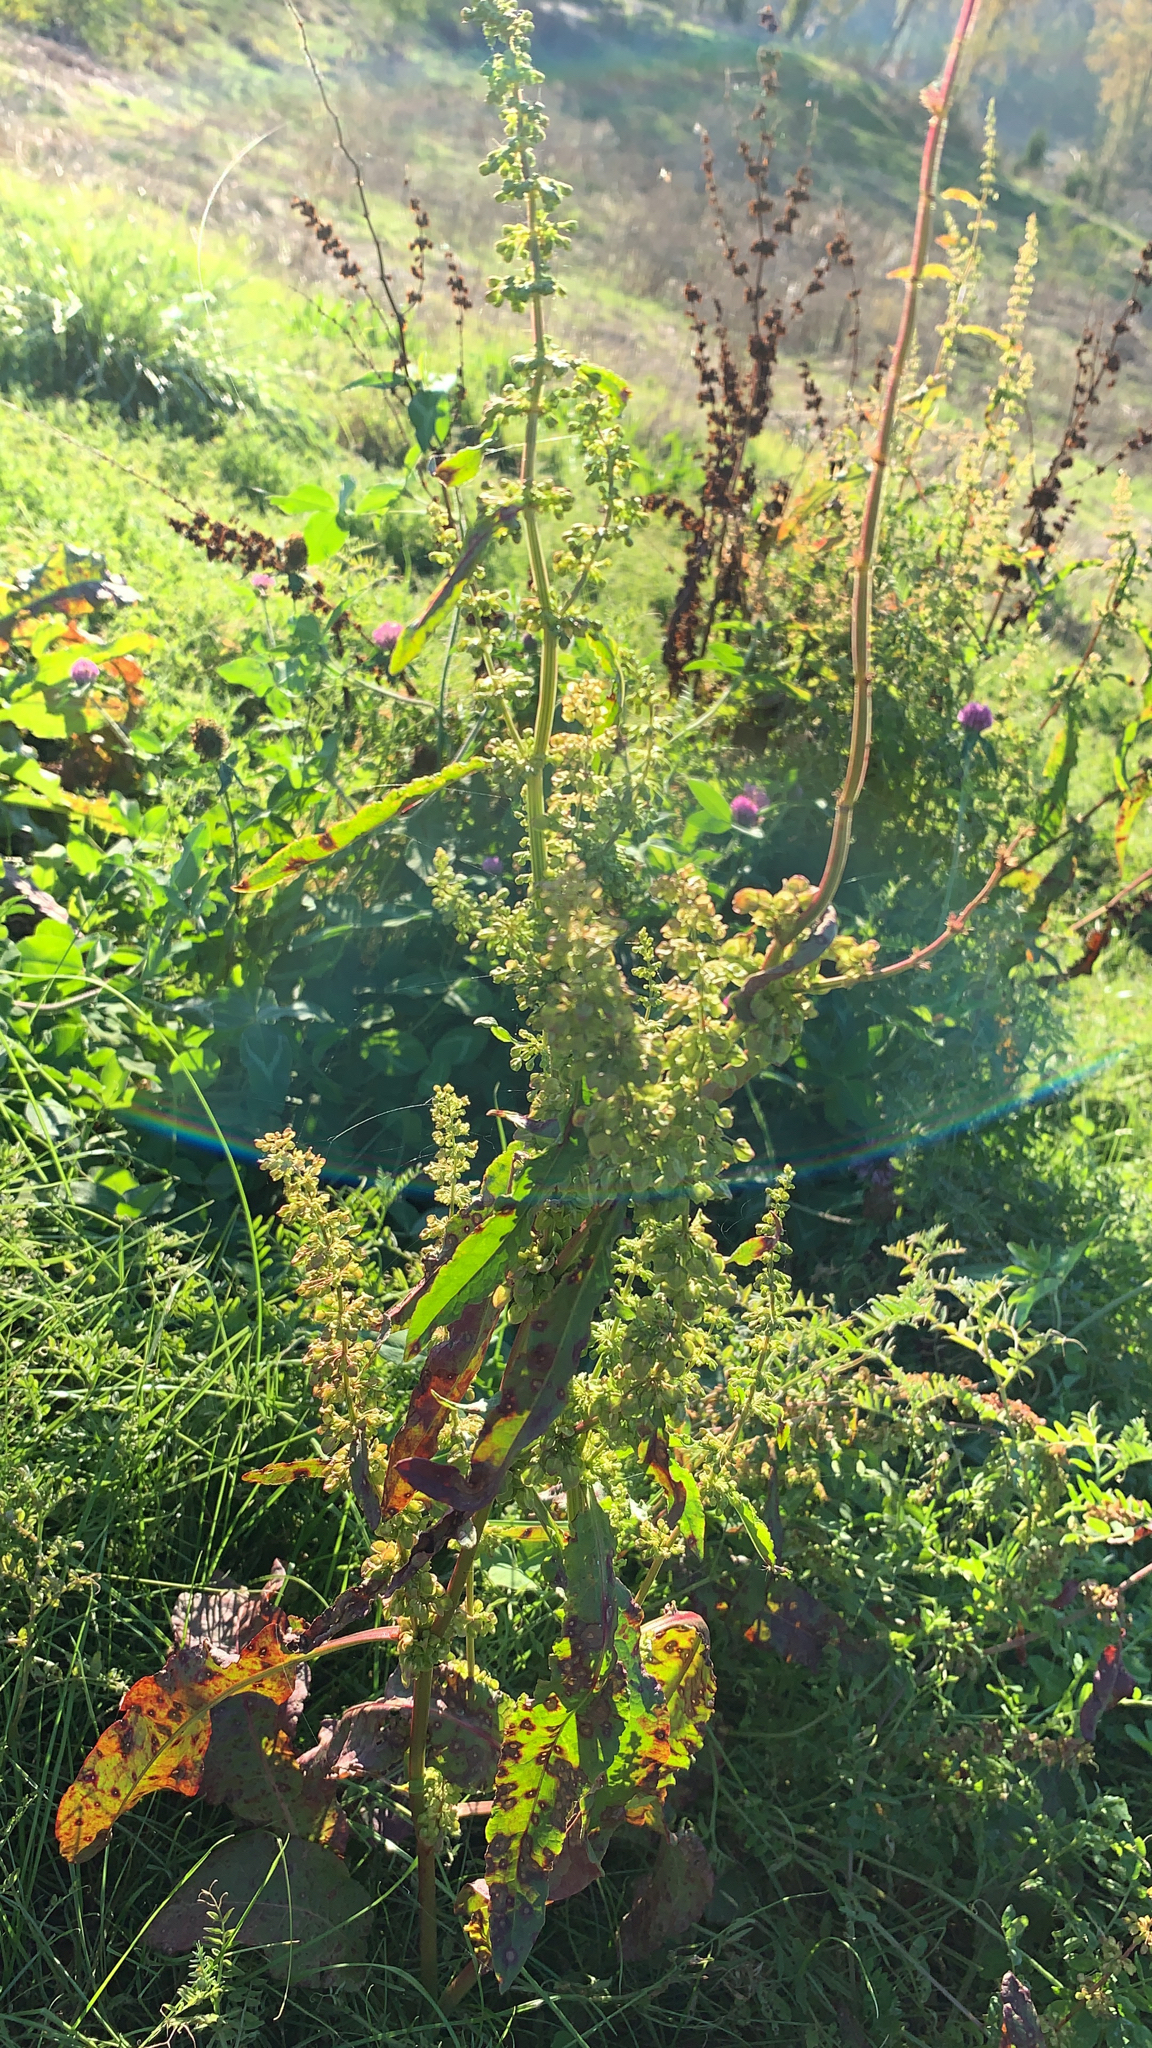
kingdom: Plantae
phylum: Tracheophyta
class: Magnoliopsida
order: Caryophyllales
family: Polygonaceae
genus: Rumex
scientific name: Rumex crispus
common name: Curled dock
